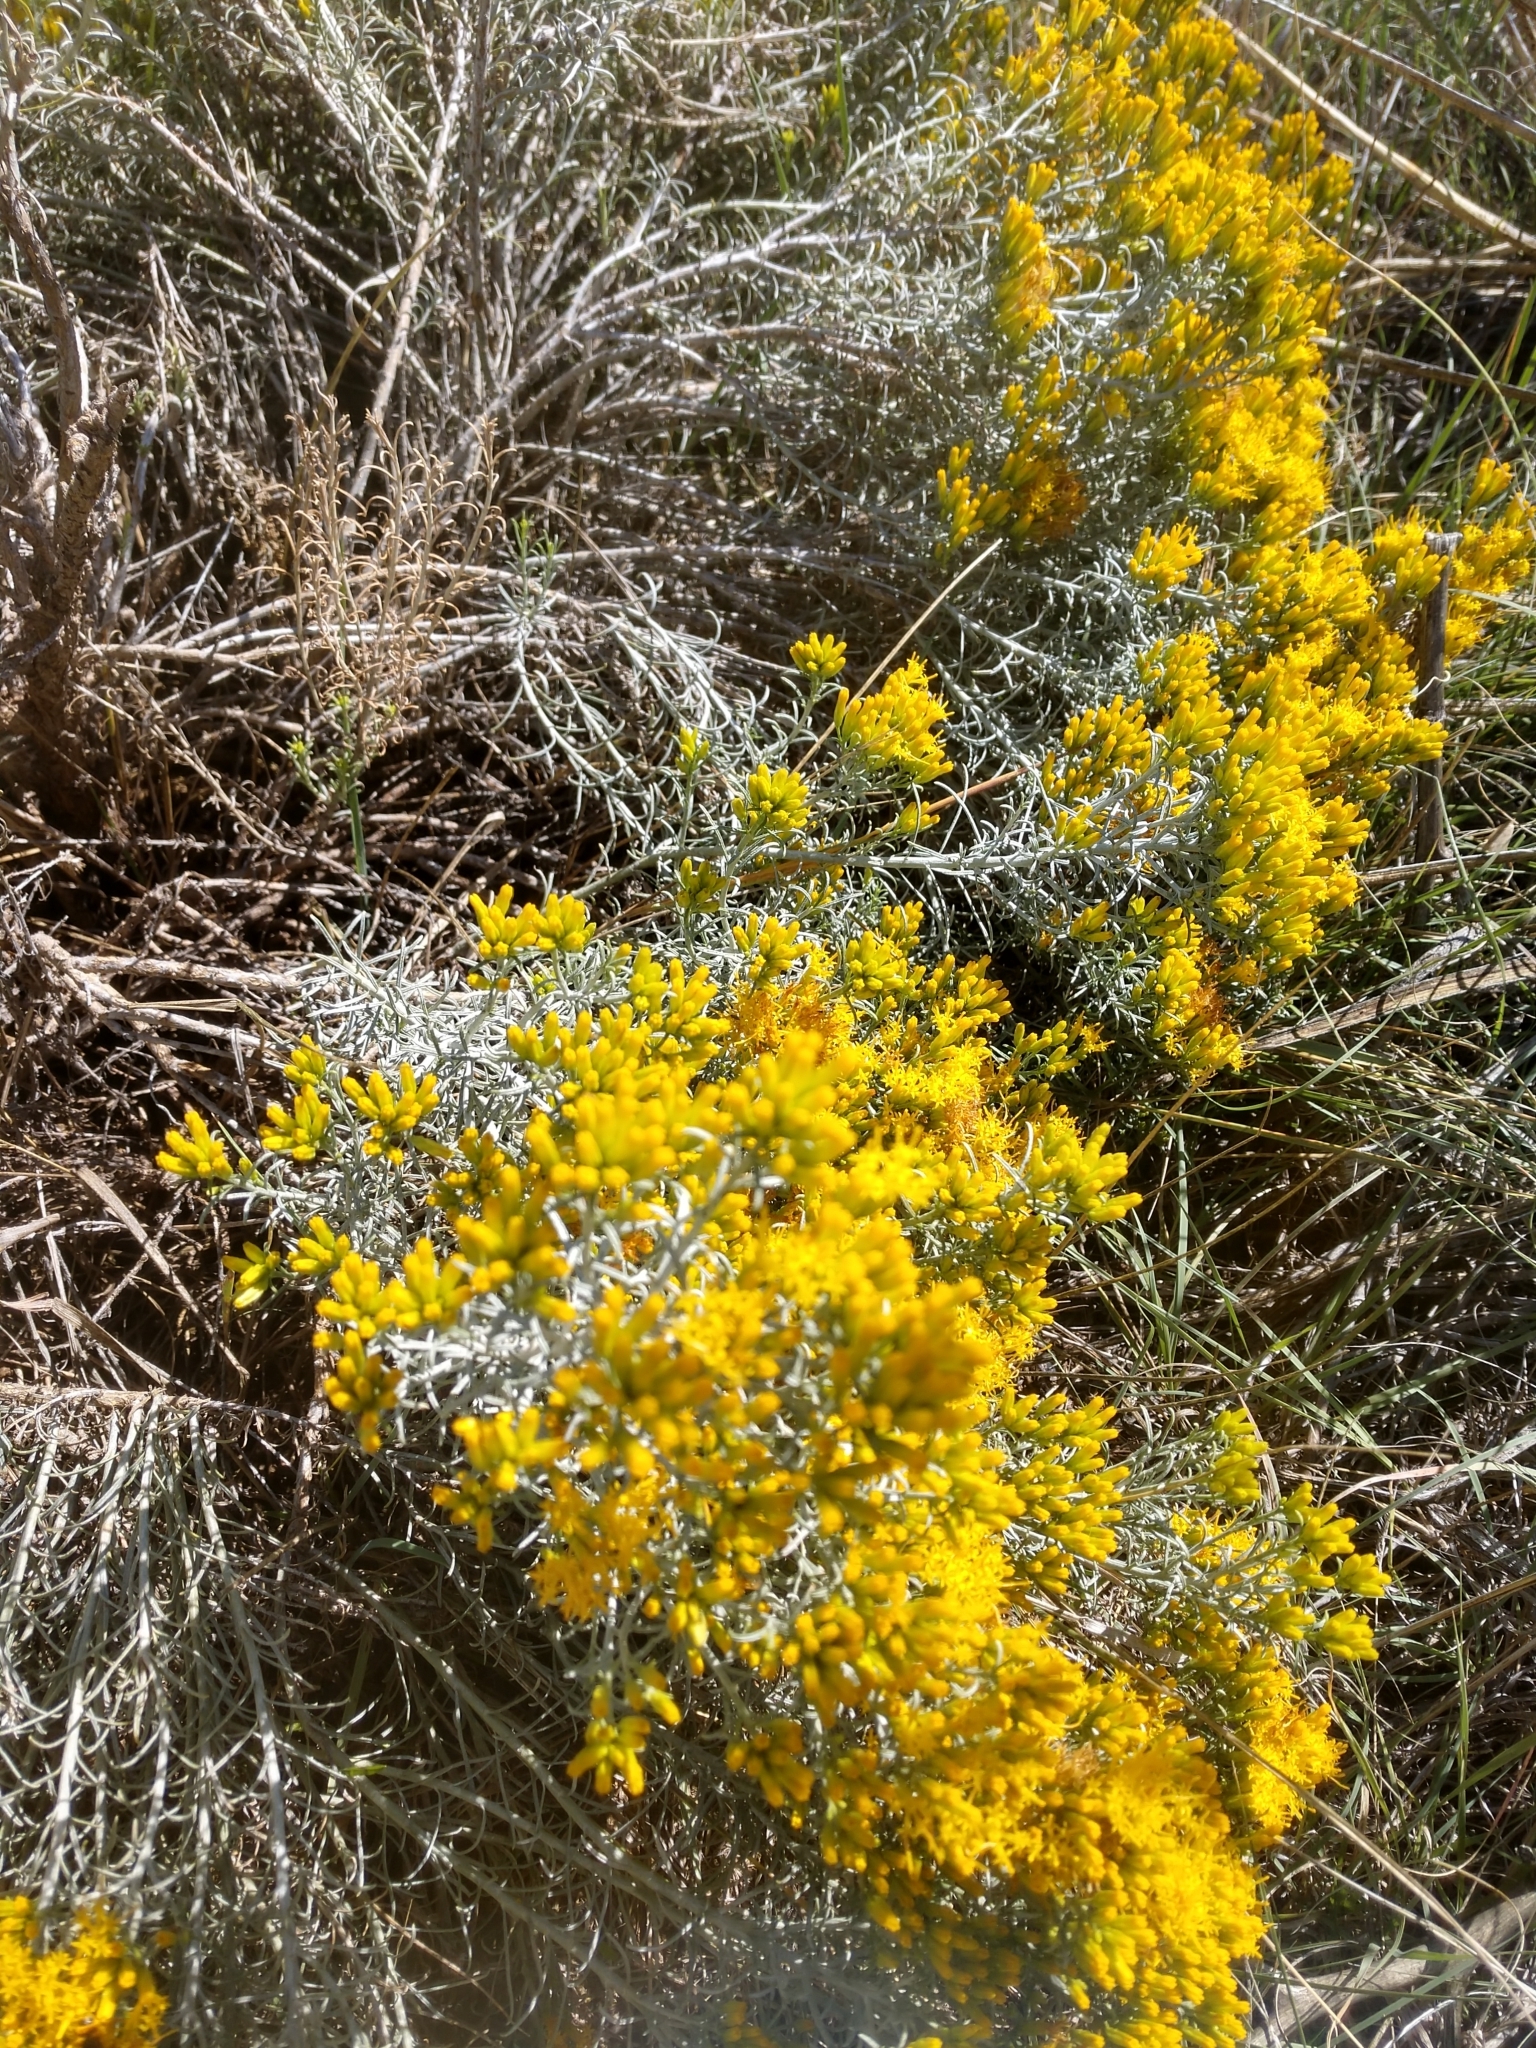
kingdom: Plantae
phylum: Tracheophyta
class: Magnoliopsida
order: Asterales
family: Asteraceae
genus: Ericameria
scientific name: Ericameria nauseosa
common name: Rubber rabbitbrush
